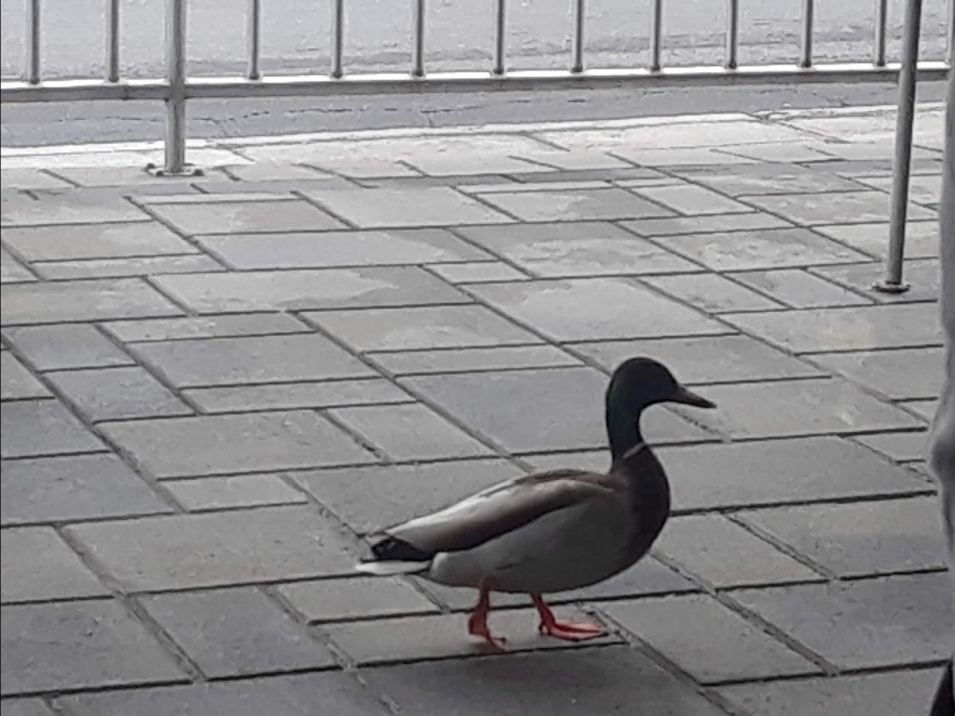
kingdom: Animalia
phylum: Chordata
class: Aves
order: Anseriformes
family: Anatidae
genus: Anas
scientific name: Anas platyrhynchos
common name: Mallard
